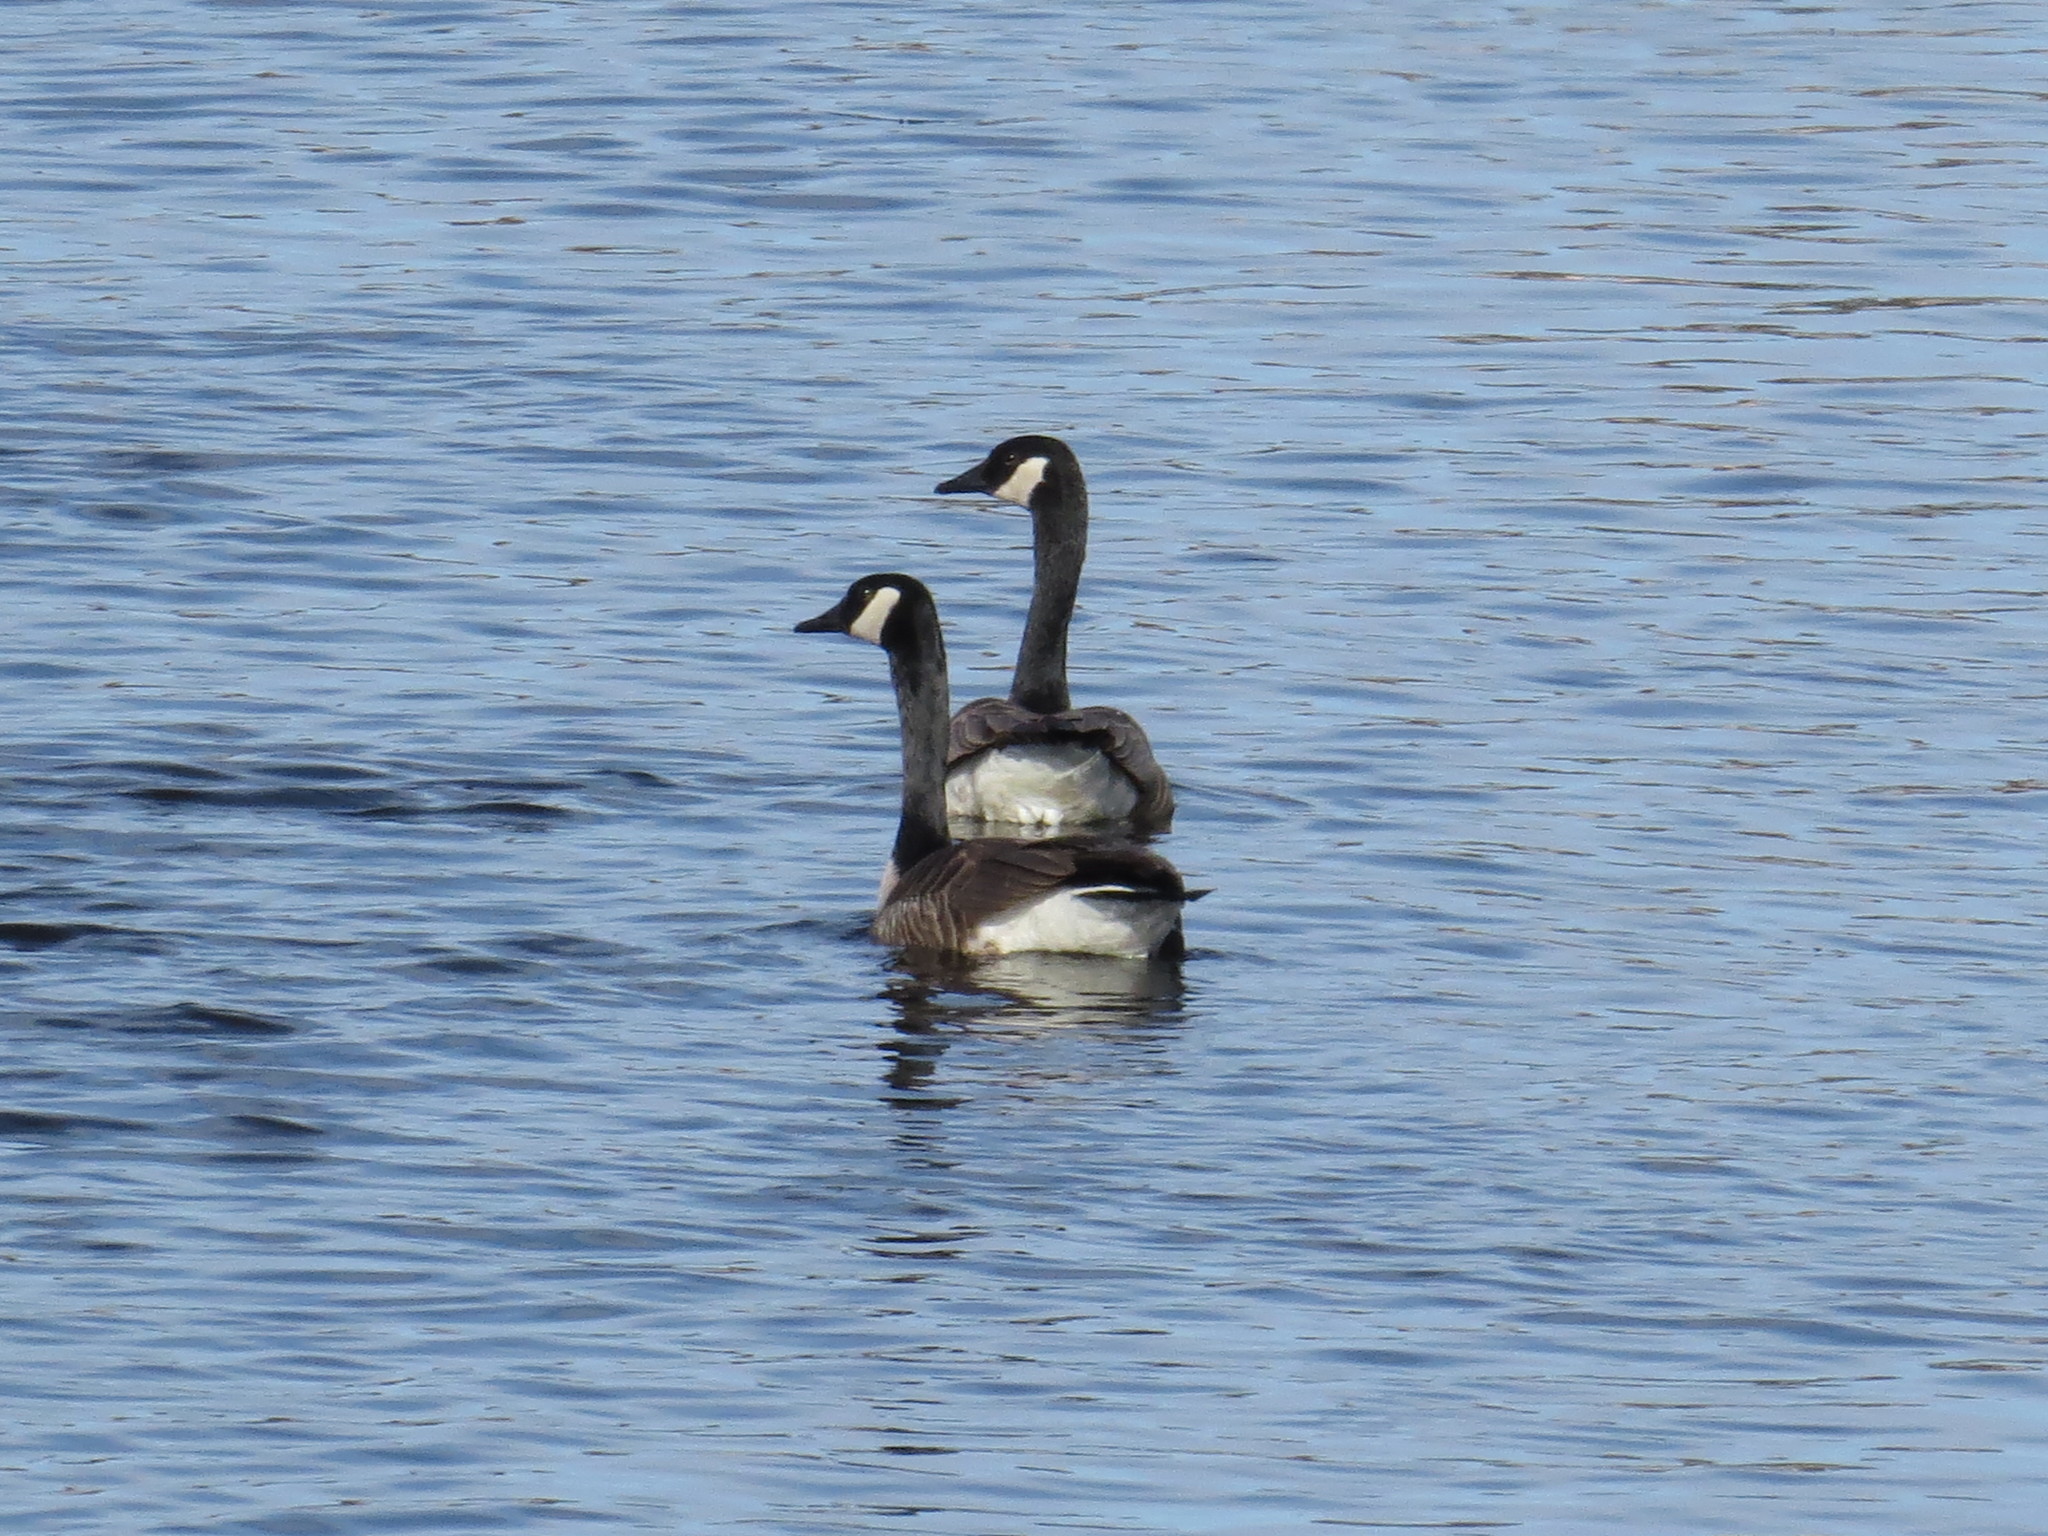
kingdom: Animalia
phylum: Chordata
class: Aves
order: Anseriformes
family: Anatidae
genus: Branta
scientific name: Branta canadensis
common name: Canada goose
